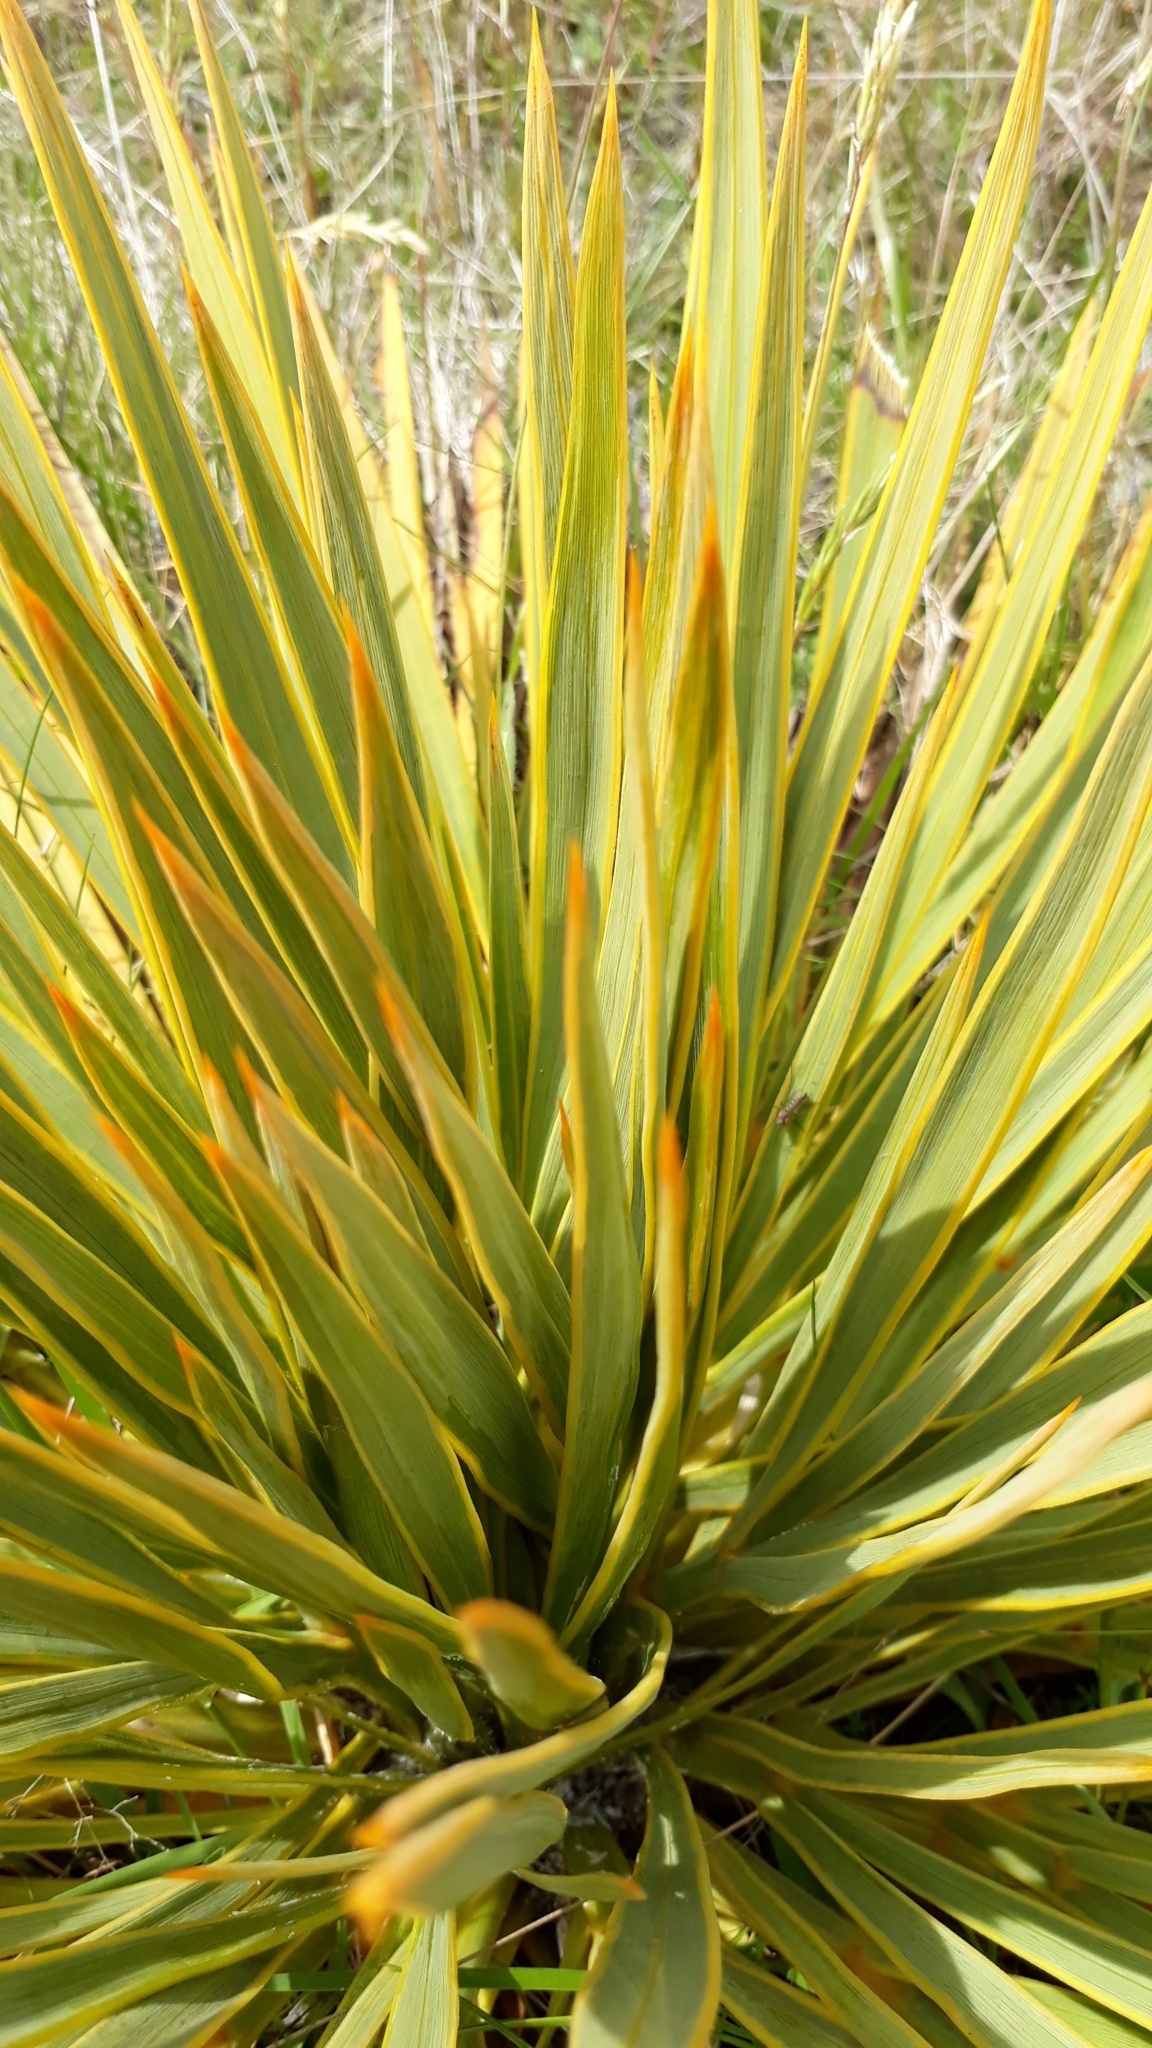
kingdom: Plantae
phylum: Tracheophyta
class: Magnoliopsida
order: Apiales
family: Apiaceae
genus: Aciphylla
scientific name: Aciphylla aurea
